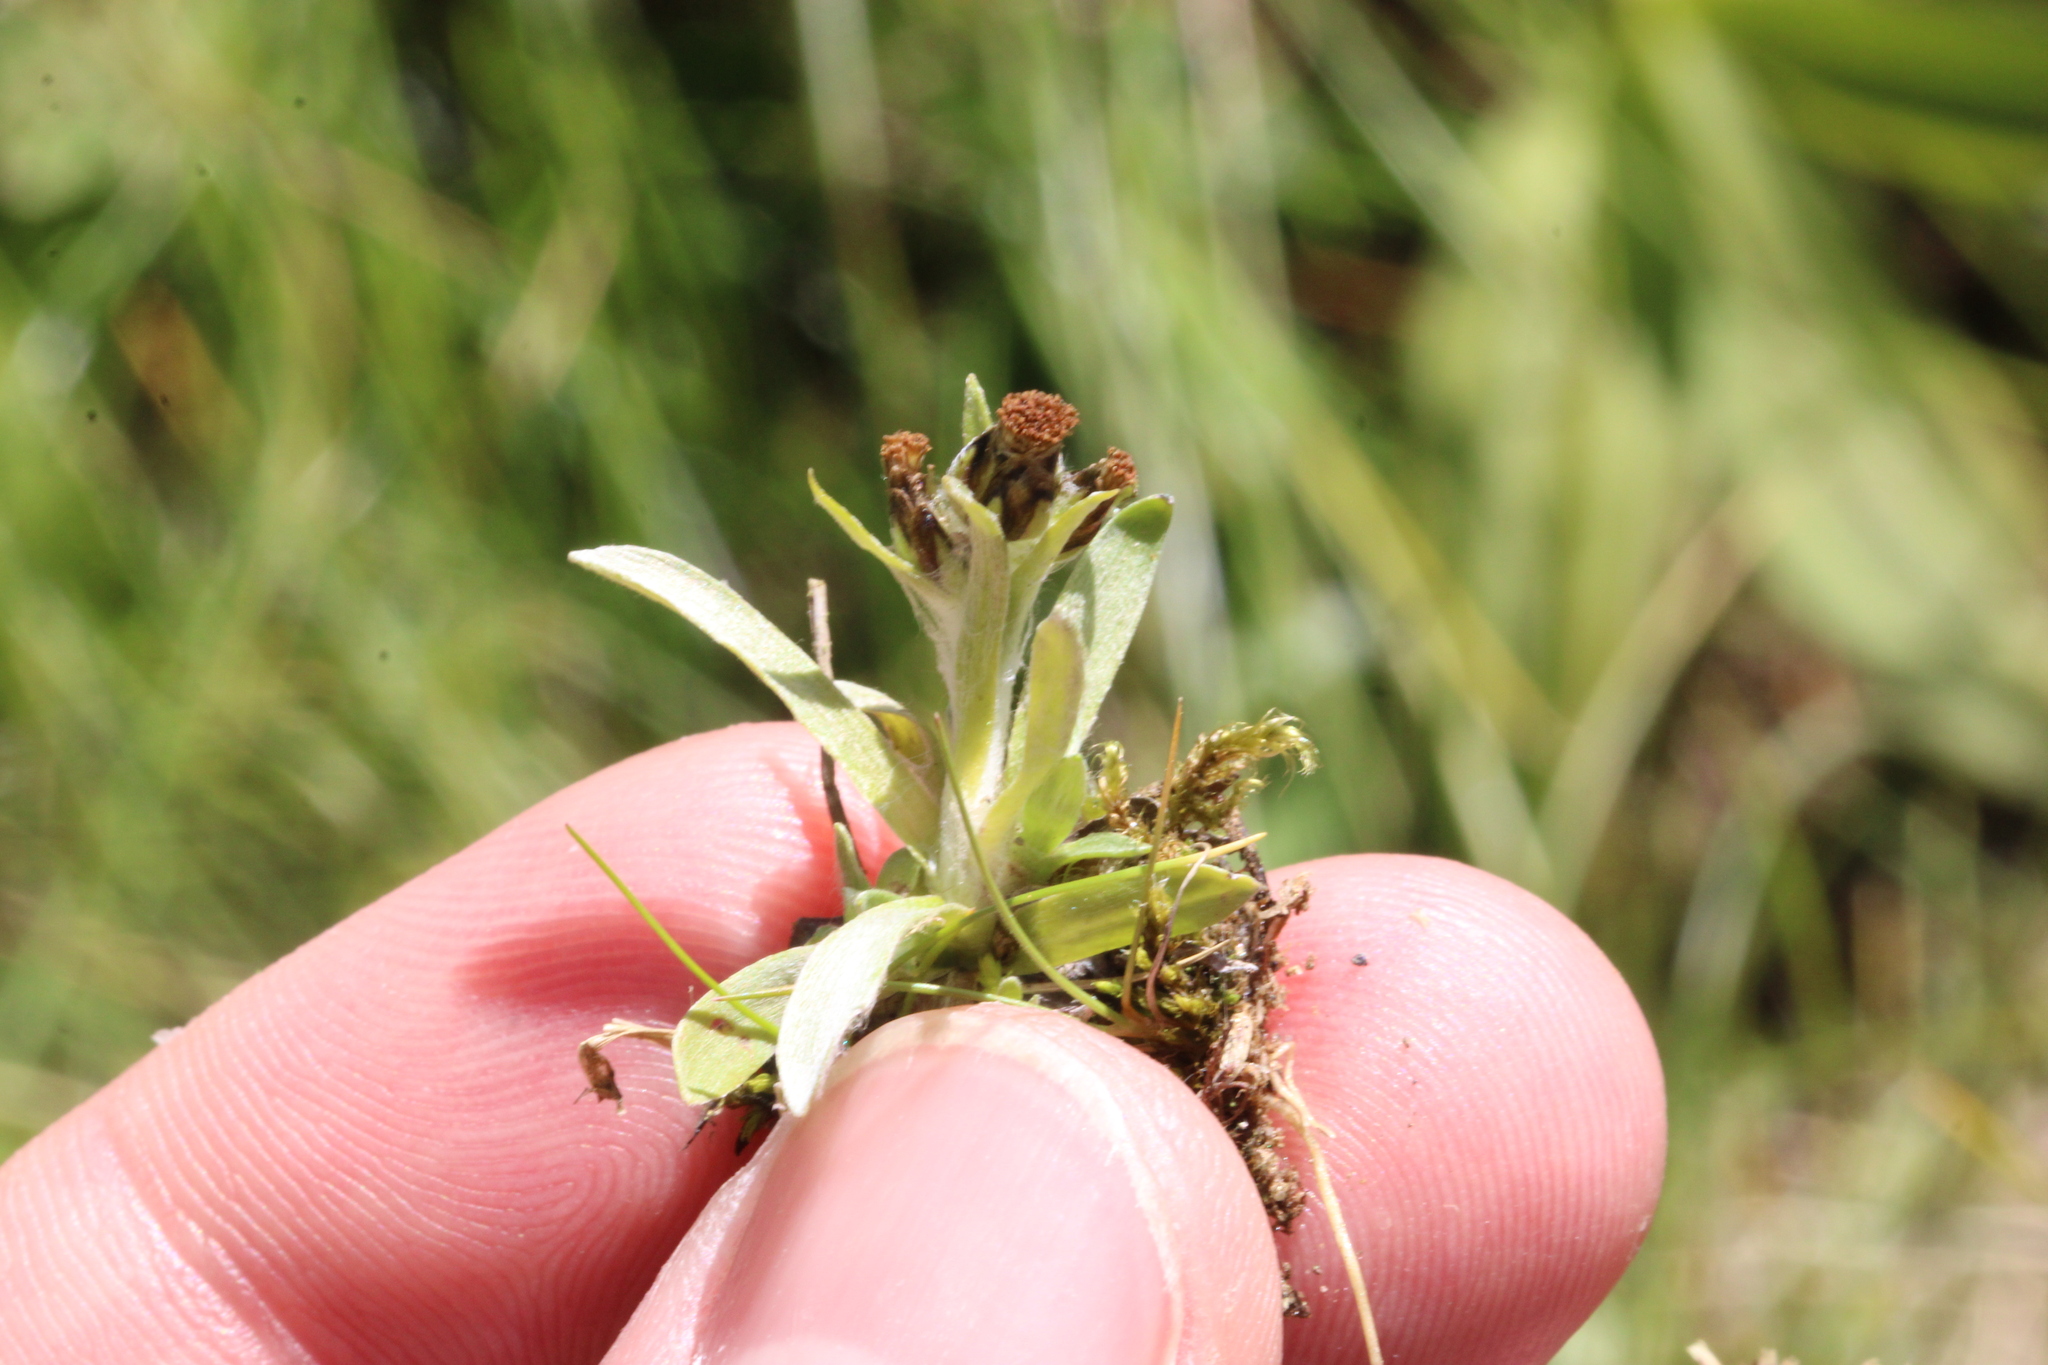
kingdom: Plantae
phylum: Tracheophyta
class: Magnoliopsida
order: Asterales
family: Asteraceae
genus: Omalotheca
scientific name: Omalotheca supina
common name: Alpine arctic-cudweed
